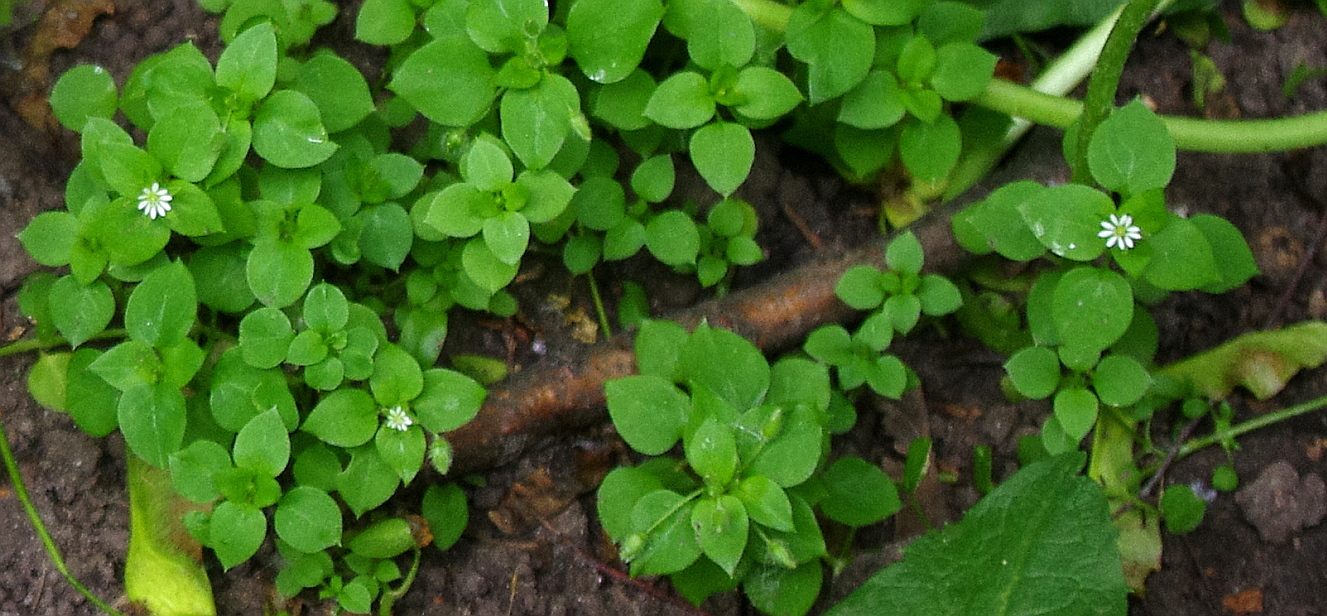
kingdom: Plantae
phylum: Tracheophyta
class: Magnoliopsida
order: Caryophyllales
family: Caryophyllaceae
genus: Stellaria
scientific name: Stellaria media
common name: Common chickweed
